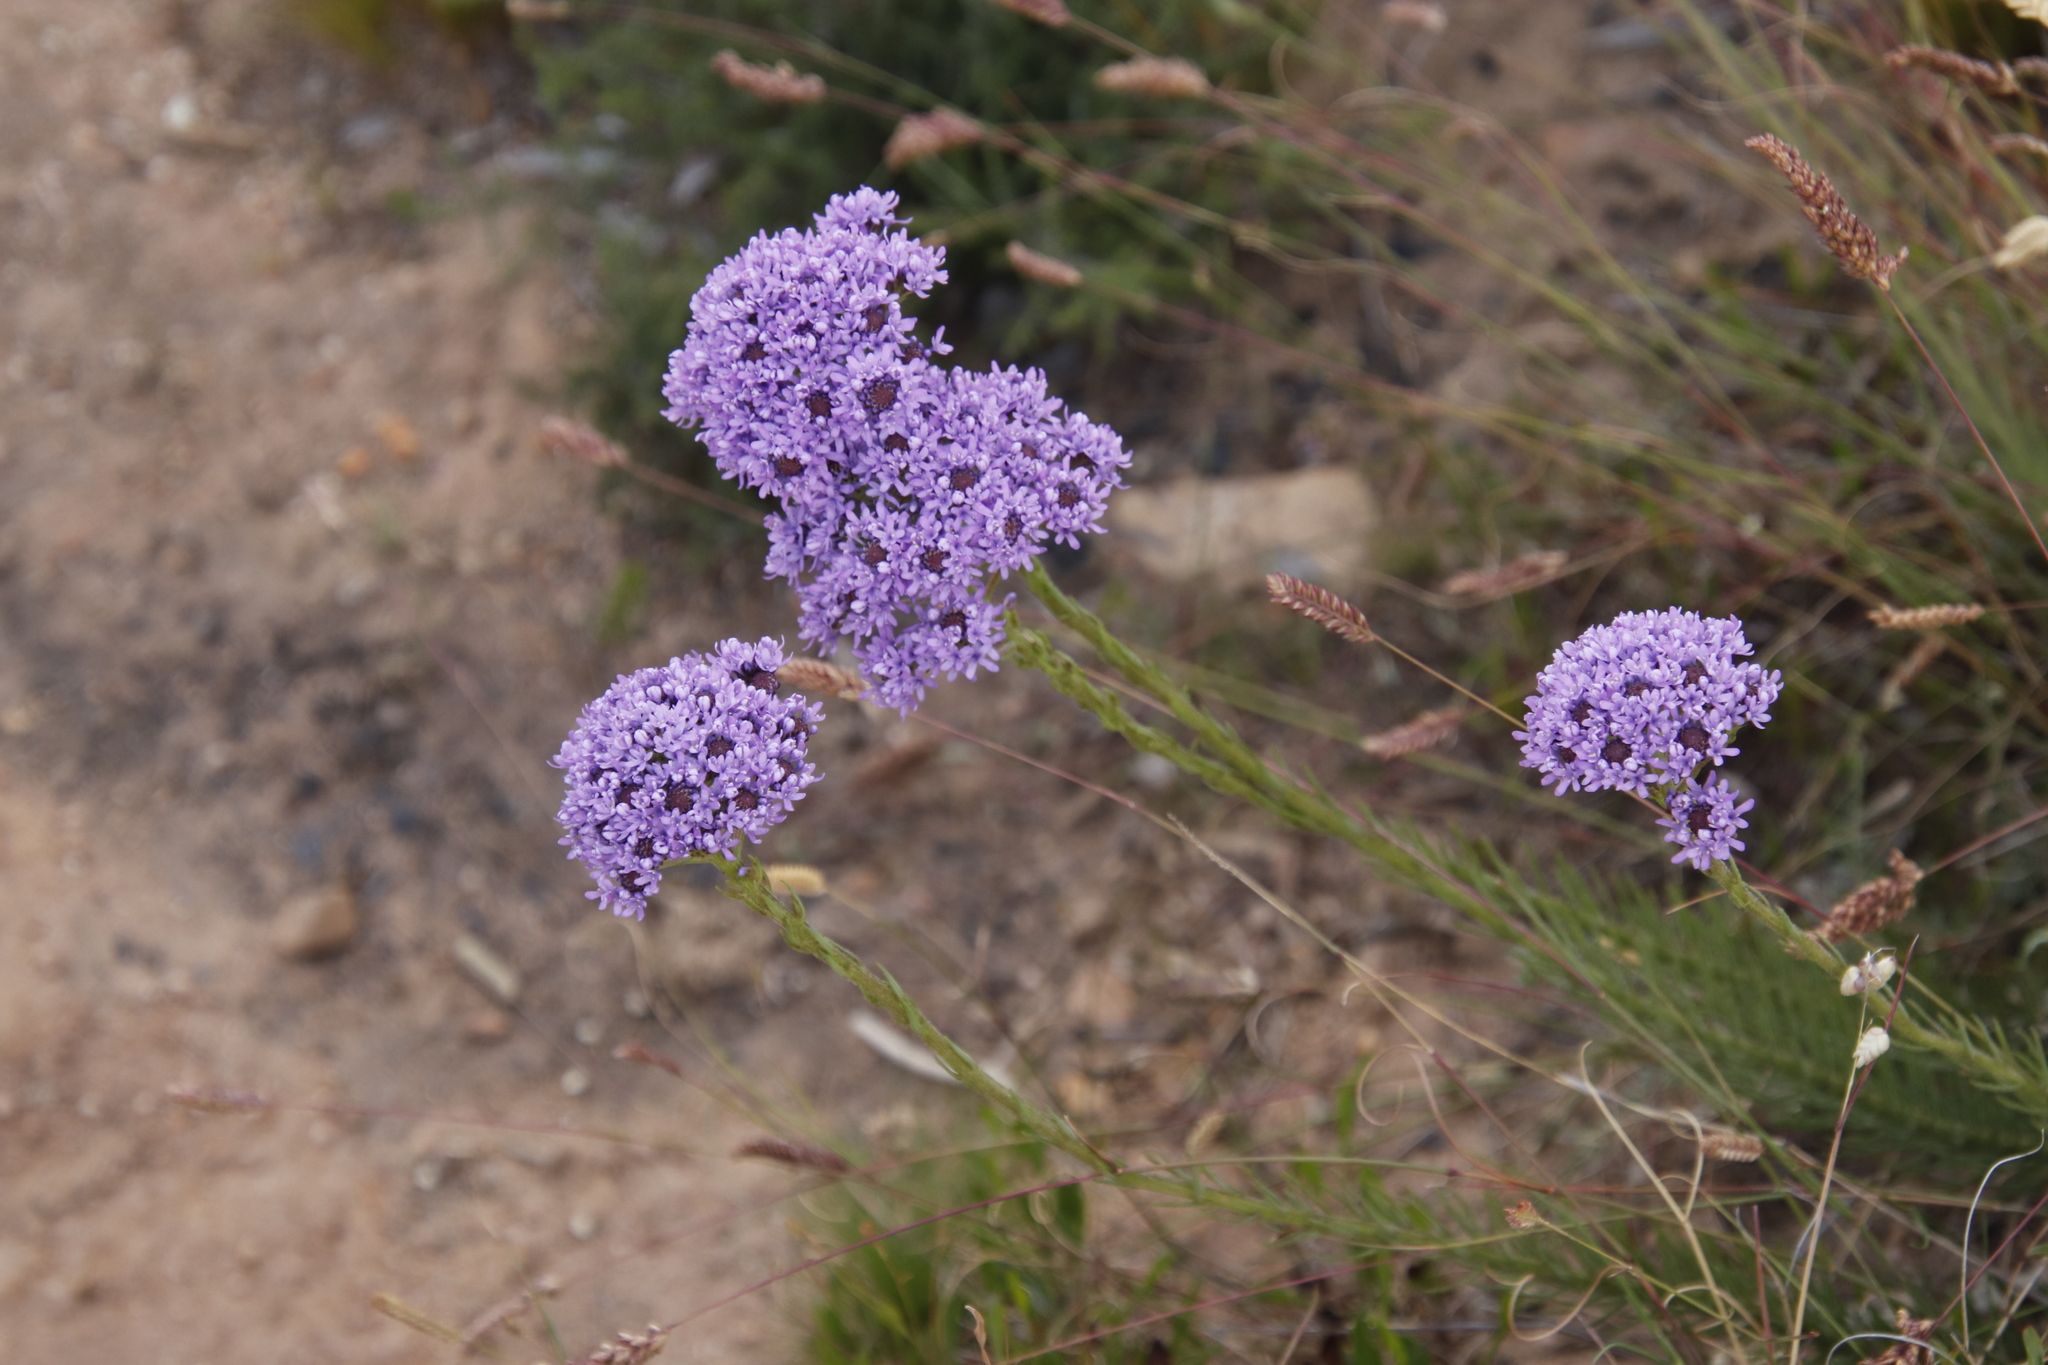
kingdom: Plantae
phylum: Tracheophyta
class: Magnoliopsida
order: Lamiales
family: Scrophulariaceae
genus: Pseudoselago
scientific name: Pseudoselago spuria
